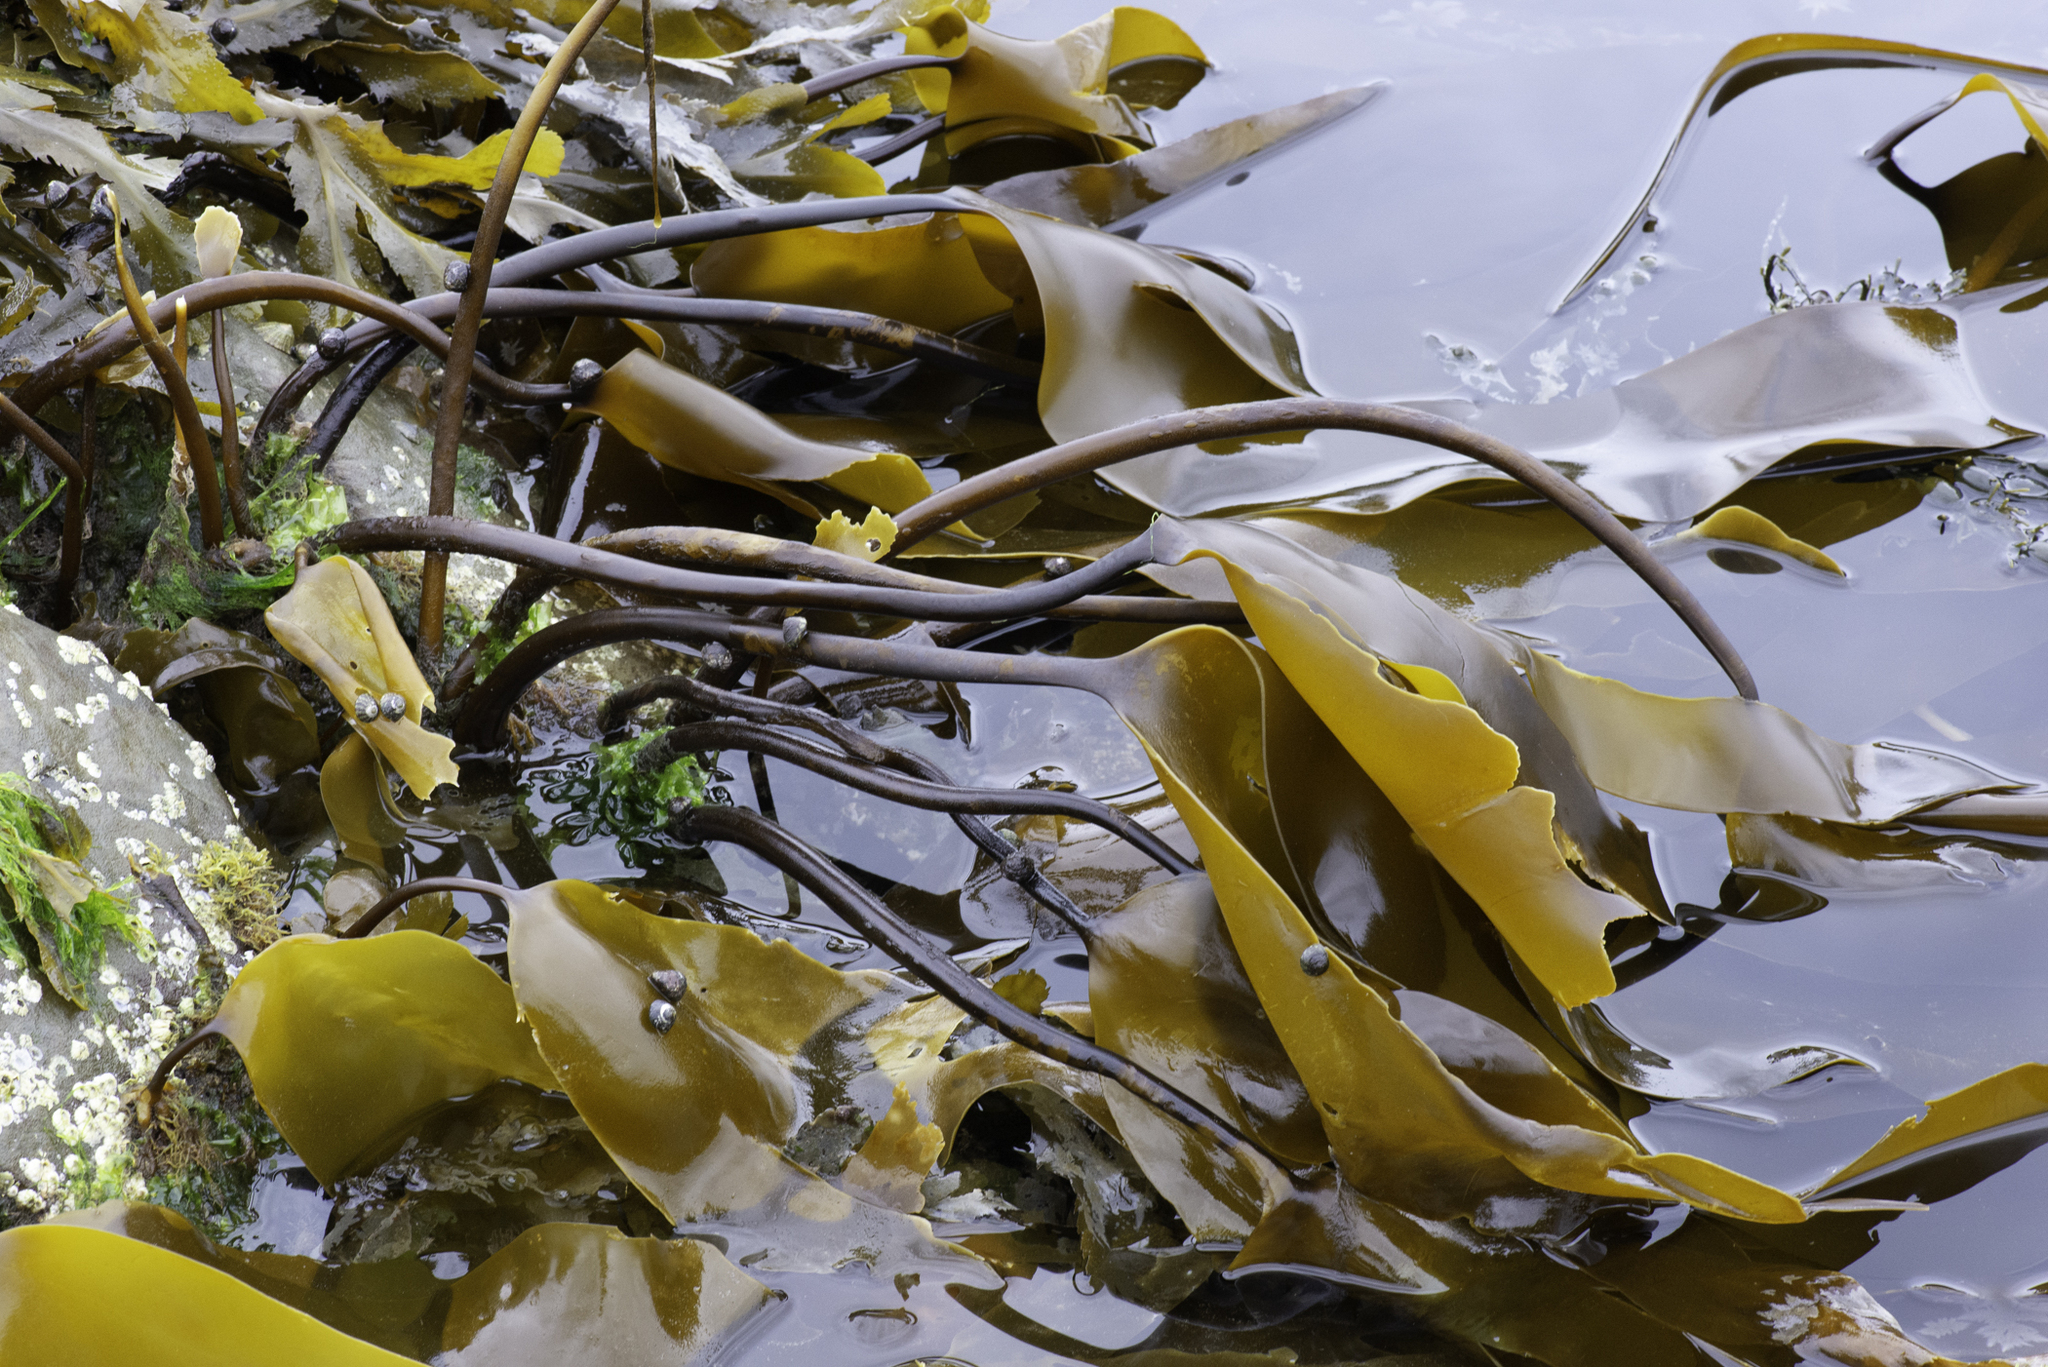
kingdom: Chromista
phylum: Ochrophyta
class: Phaeophyceae
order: Laminariales
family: Laminariaceae
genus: Laminaria
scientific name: Laminaria digitata
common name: Oarweed
